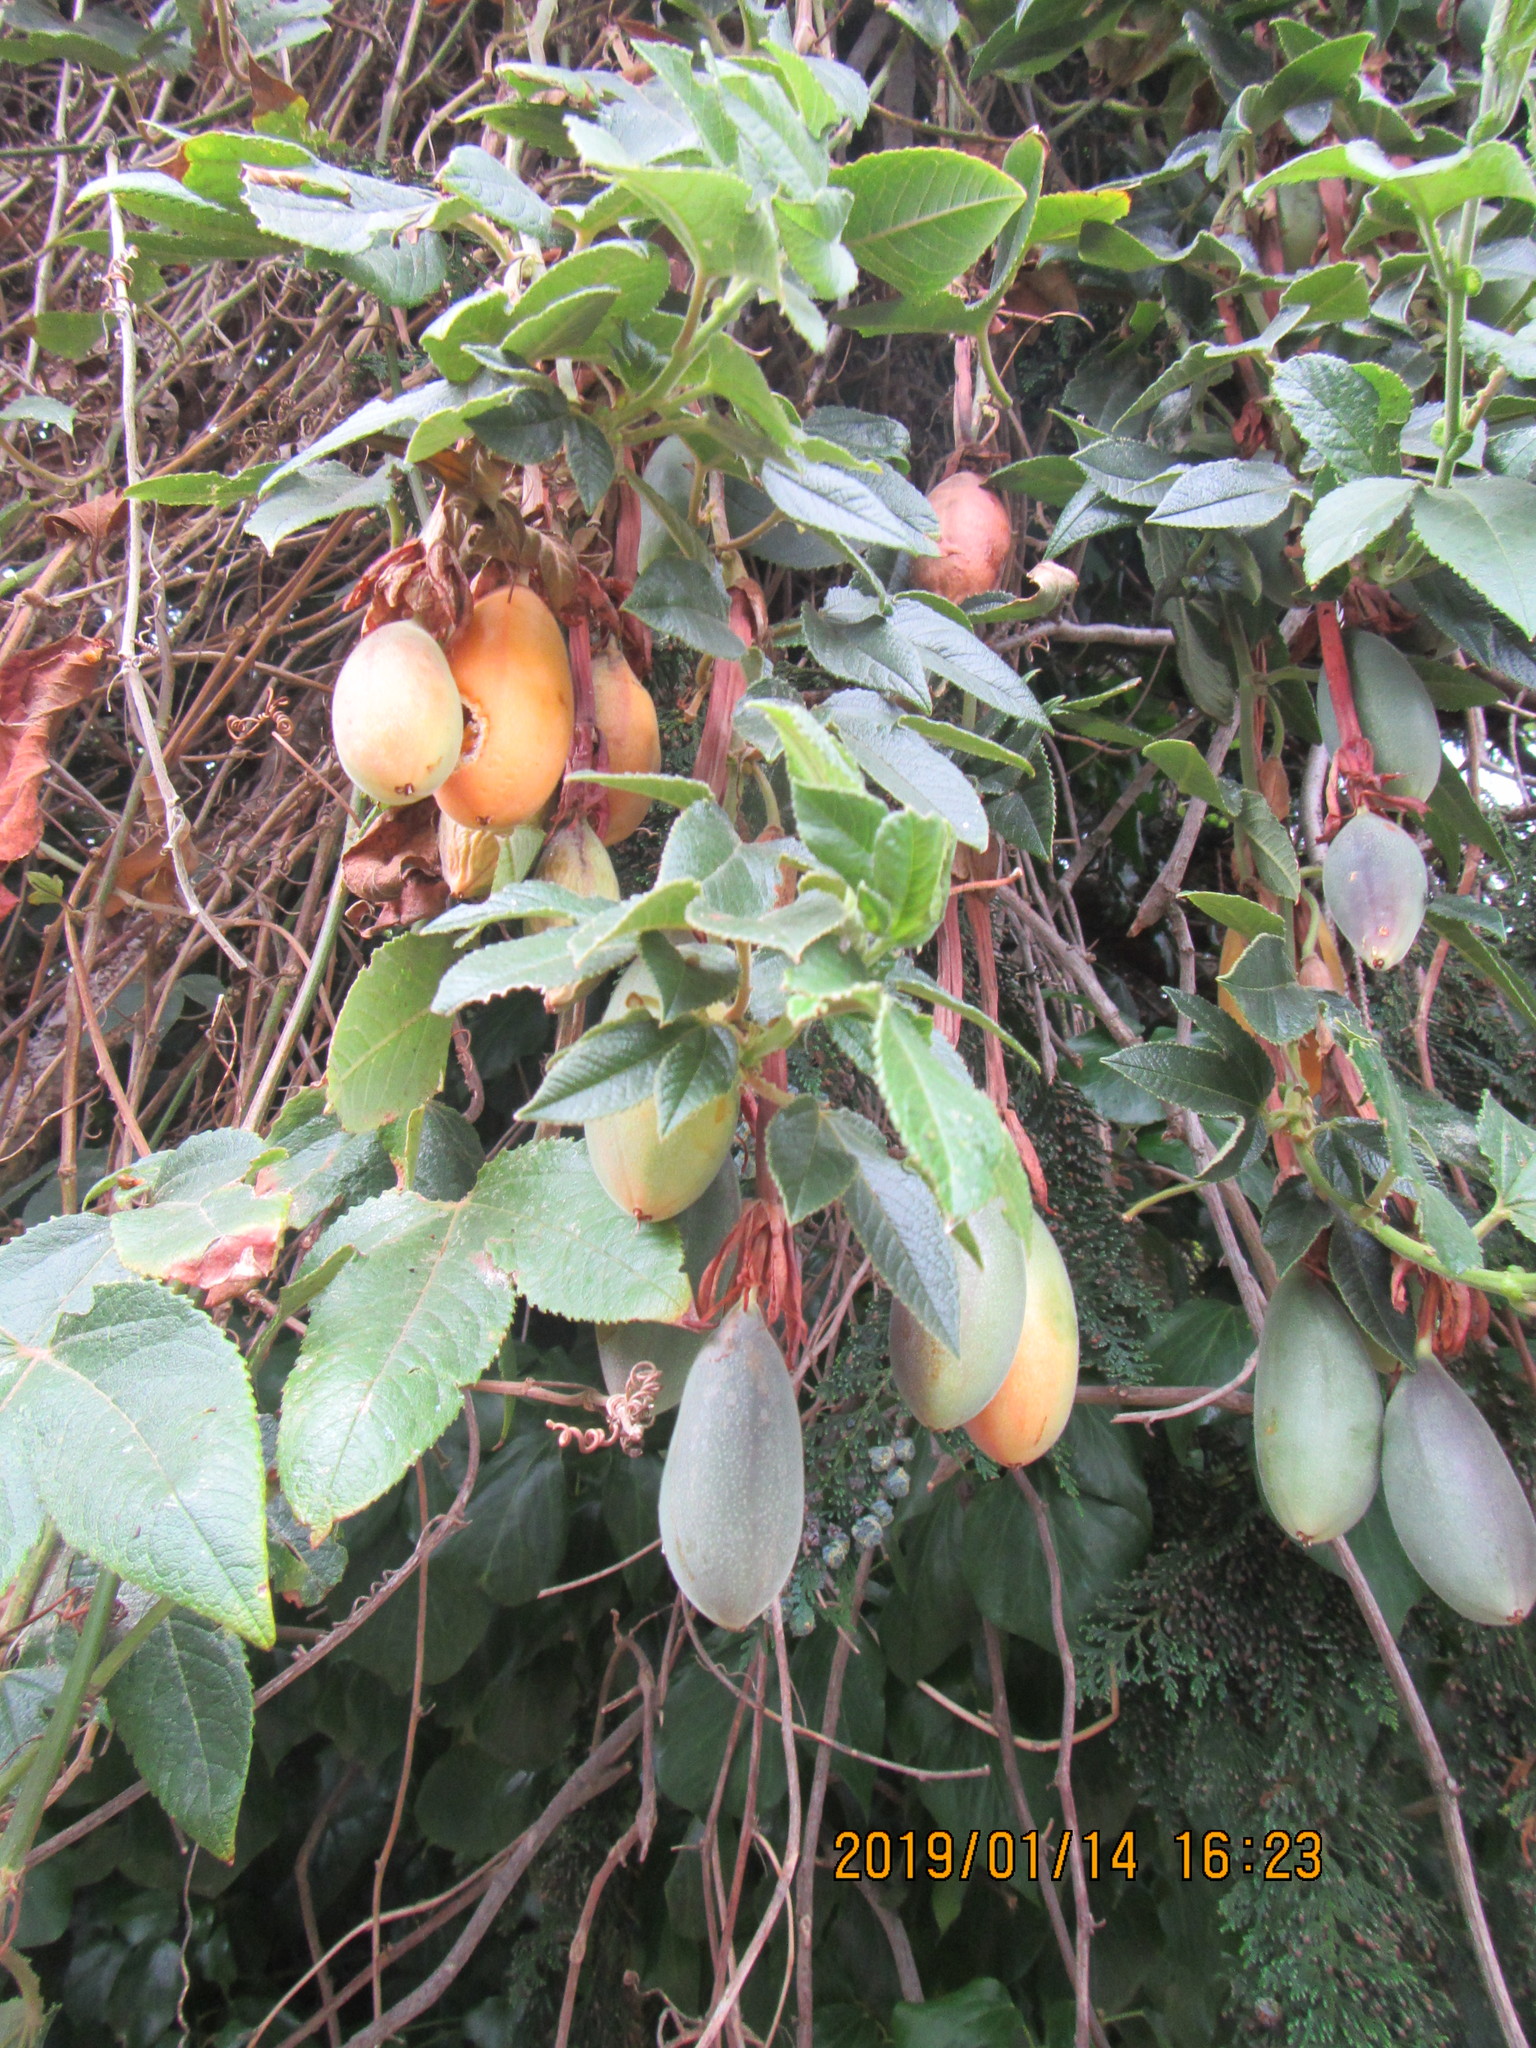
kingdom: Plantae
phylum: Tracheophyta
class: Magnoliopsida
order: Malpighiales
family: Passifloraceae
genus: Passiflora
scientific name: Passiflora tripartita
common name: Banana poka
